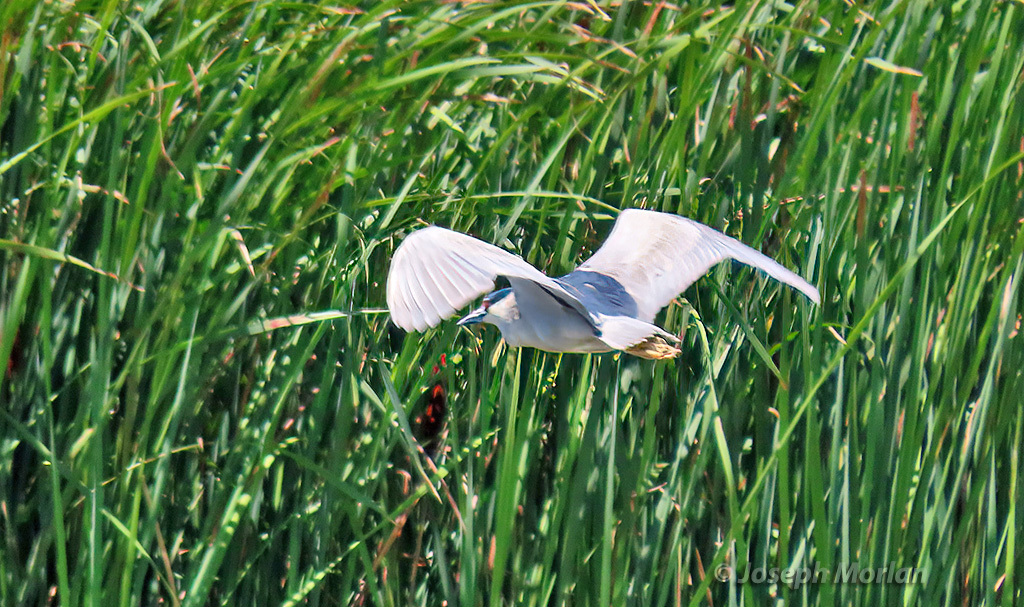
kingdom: Animalia
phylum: Chordata
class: Aves
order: Pelecaniformes
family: Ardeidae
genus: Nycticorax
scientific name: Nycticorax nycticorax
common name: Black-crowned night heron
